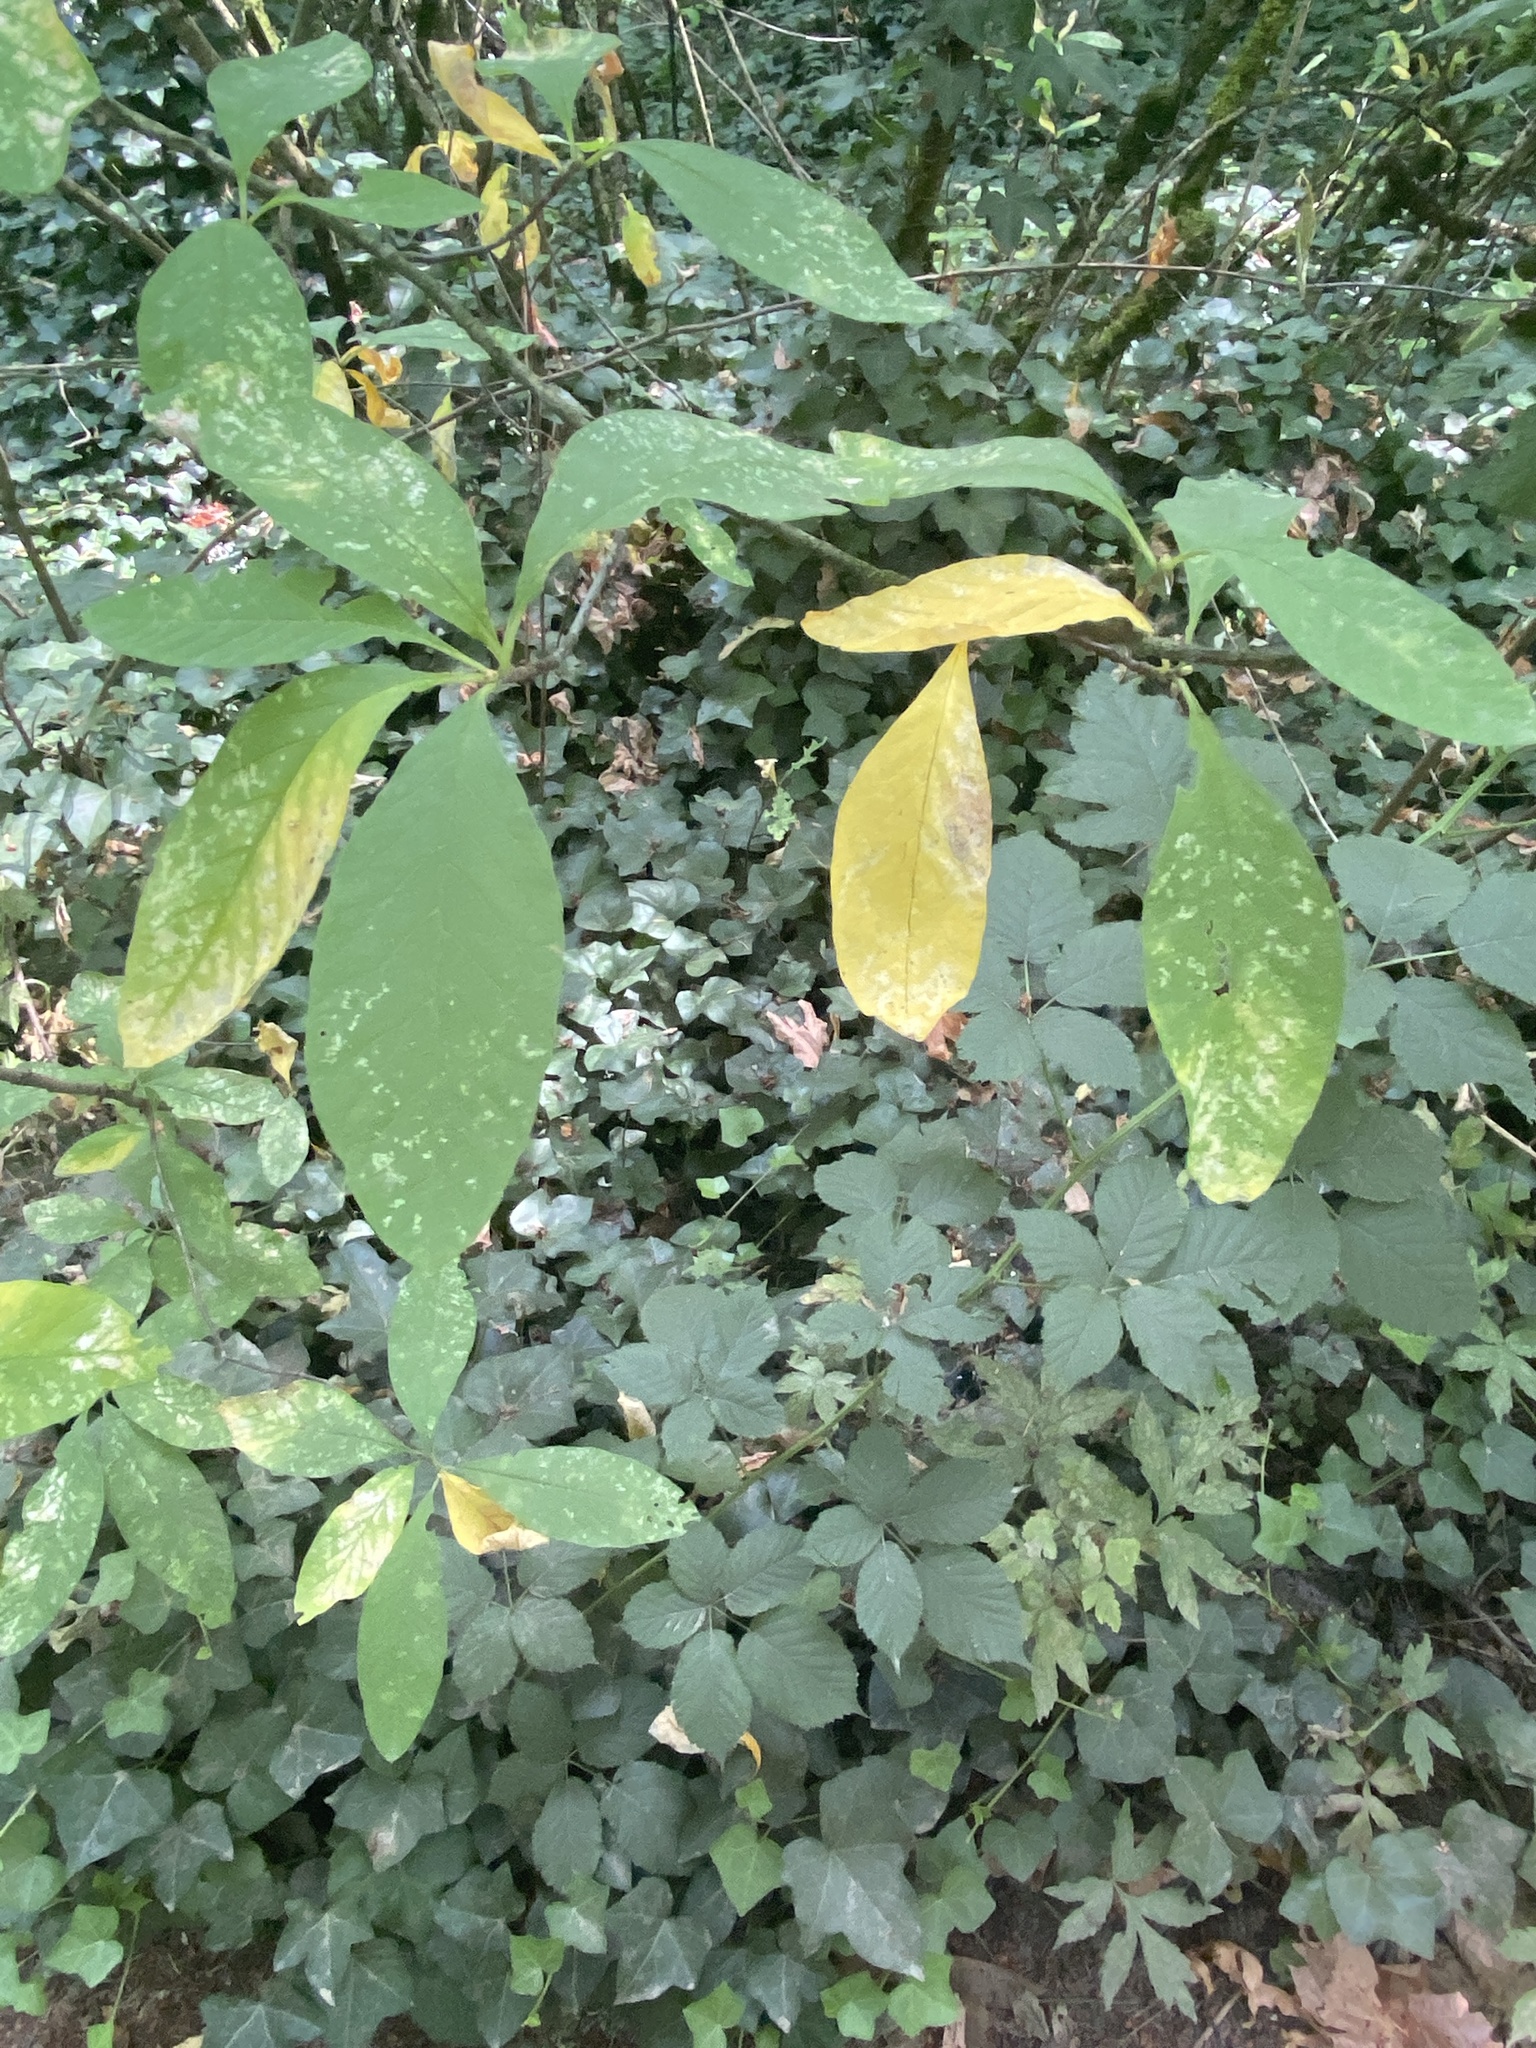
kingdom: Plantae
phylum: Tracheophyta
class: Magnoliopsida
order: Rosales
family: Rosaceae
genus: Oemleria
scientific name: Oemleria cerasiformis
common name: Osoberry
